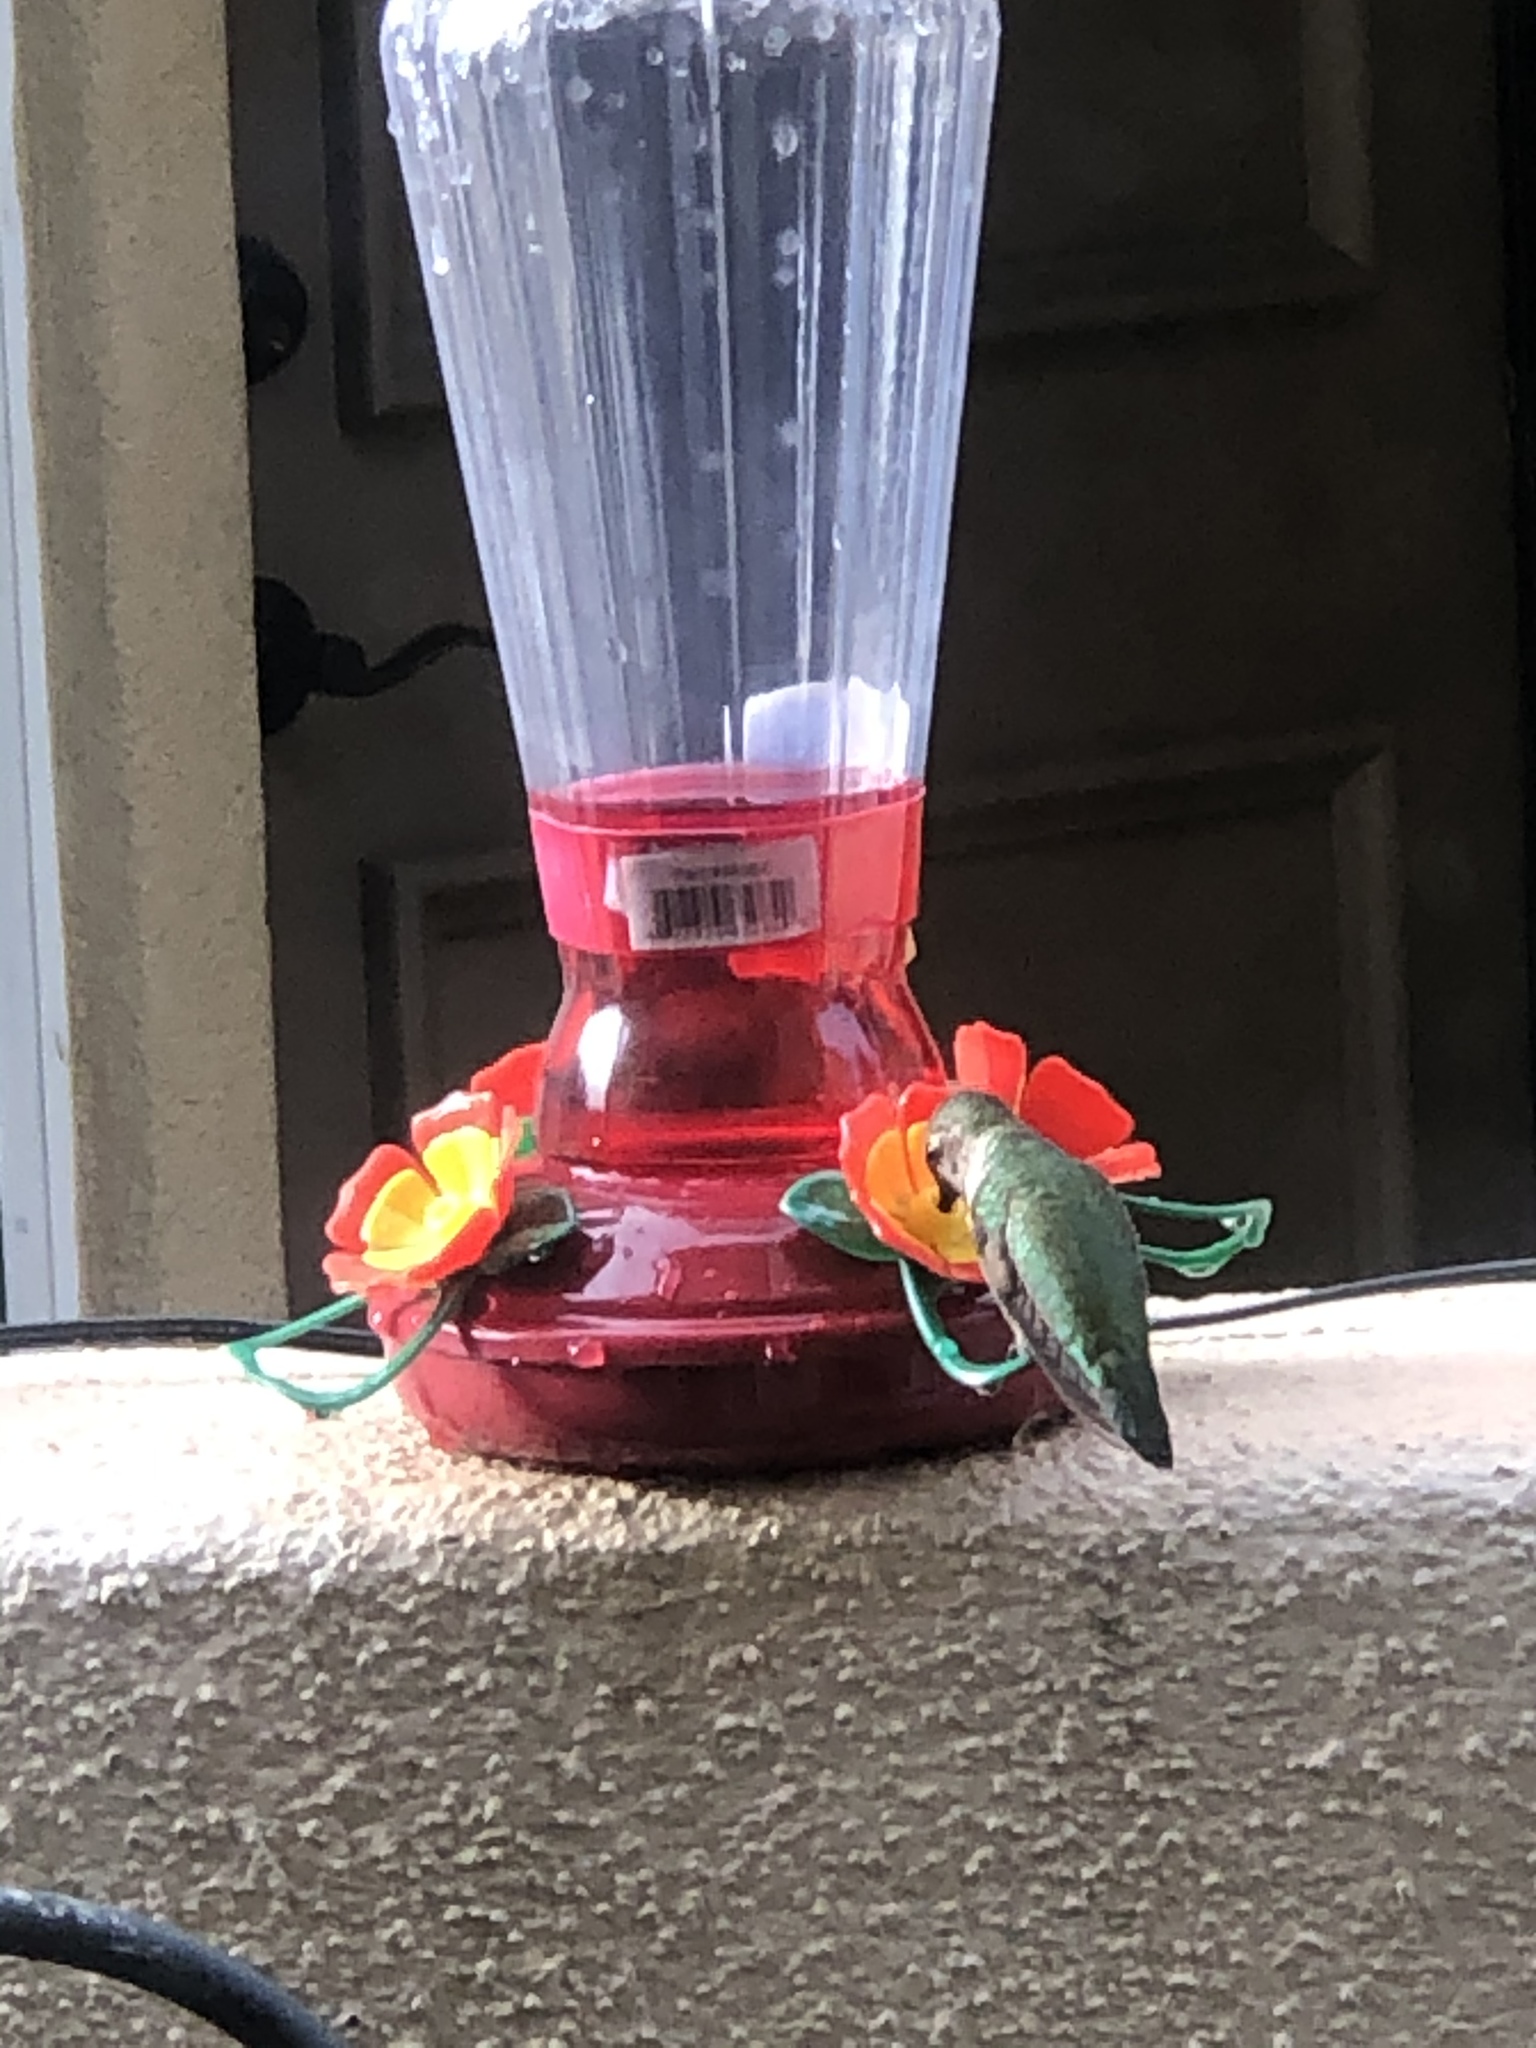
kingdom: Animalia
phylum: Chordata
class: Aves
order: Apodiformes
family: Trochilidae
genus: Calypte
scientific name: Calypte anna
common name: Anna's hummingbird
